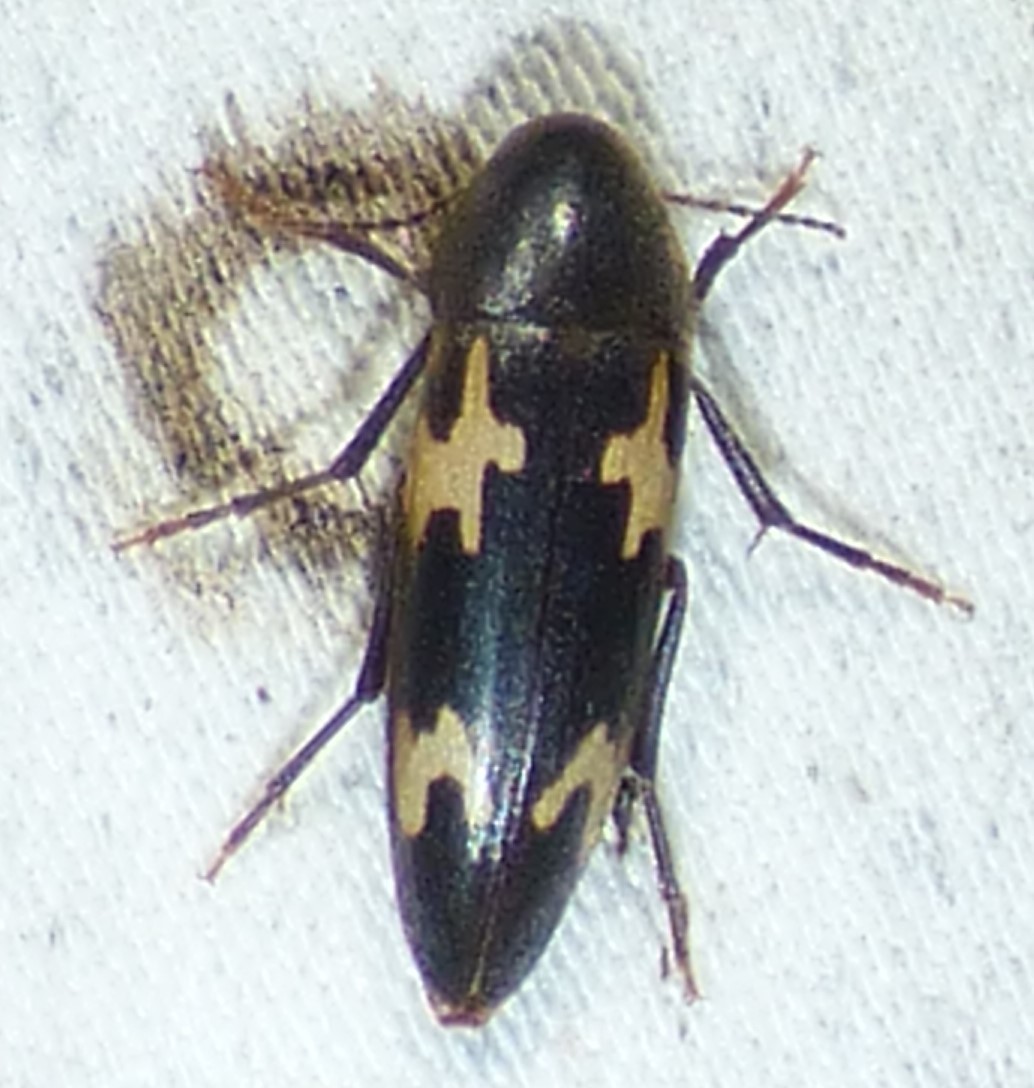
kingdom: Animalia
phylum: Arthropoda
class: Insecta
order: Coleoptera
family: Melandryidae
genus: Dircaea
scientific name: Dircaea liturata
